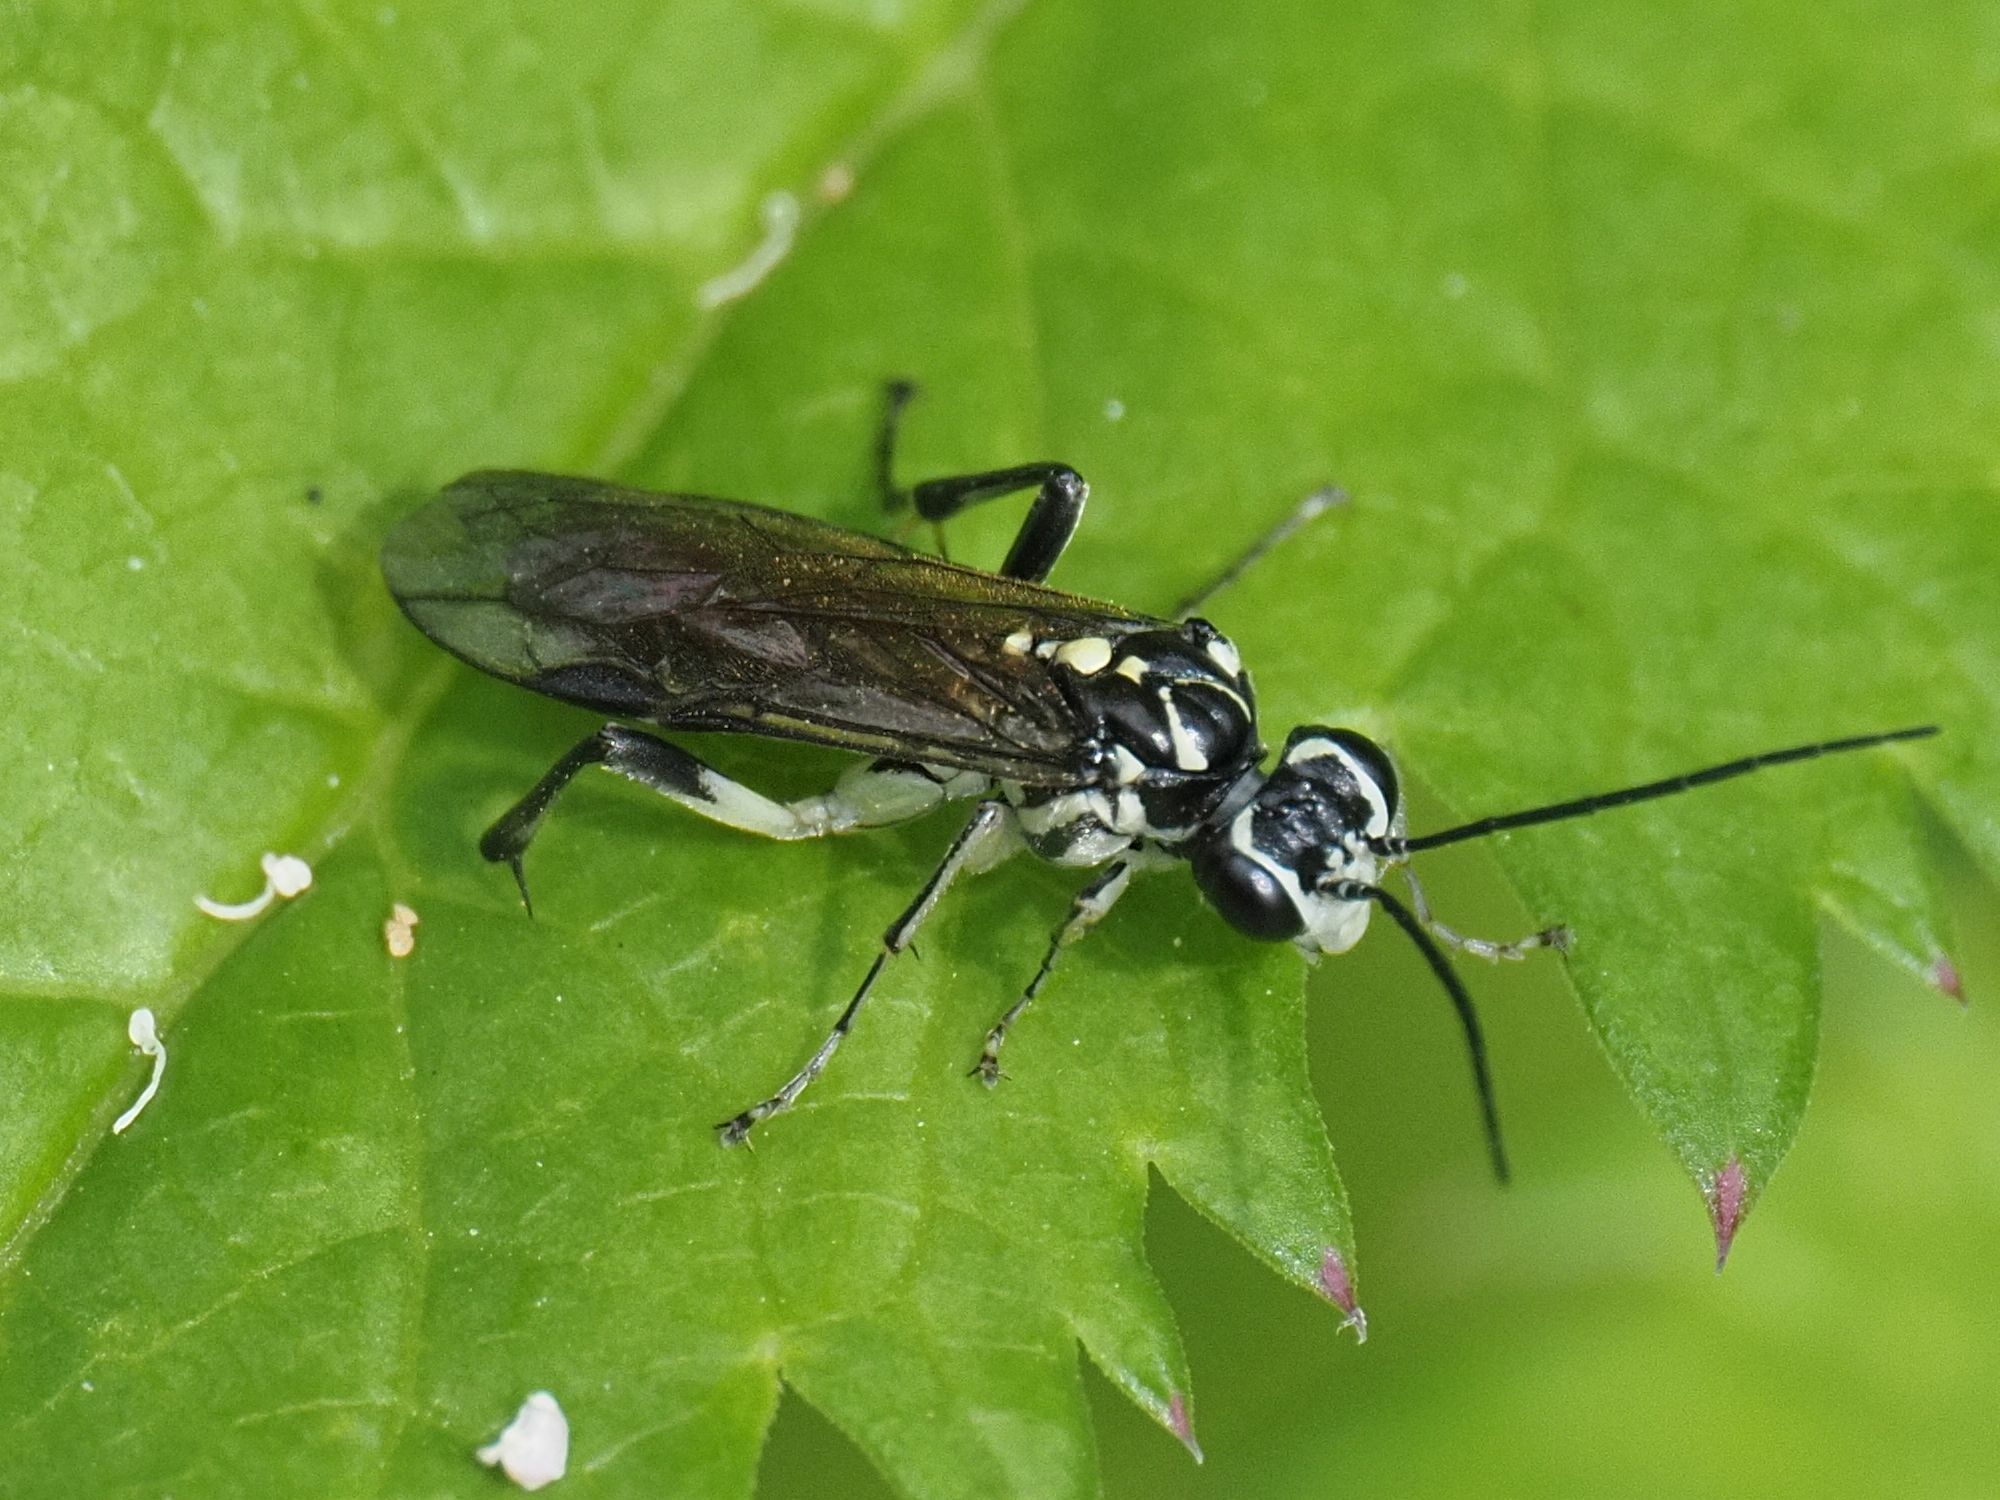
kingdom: Animalia
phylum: Arthropoda
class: Insecta
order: Hymenoptera
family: Tenthredinidae
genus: Pachyprotasis
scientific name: Pachyprotasis rapae
